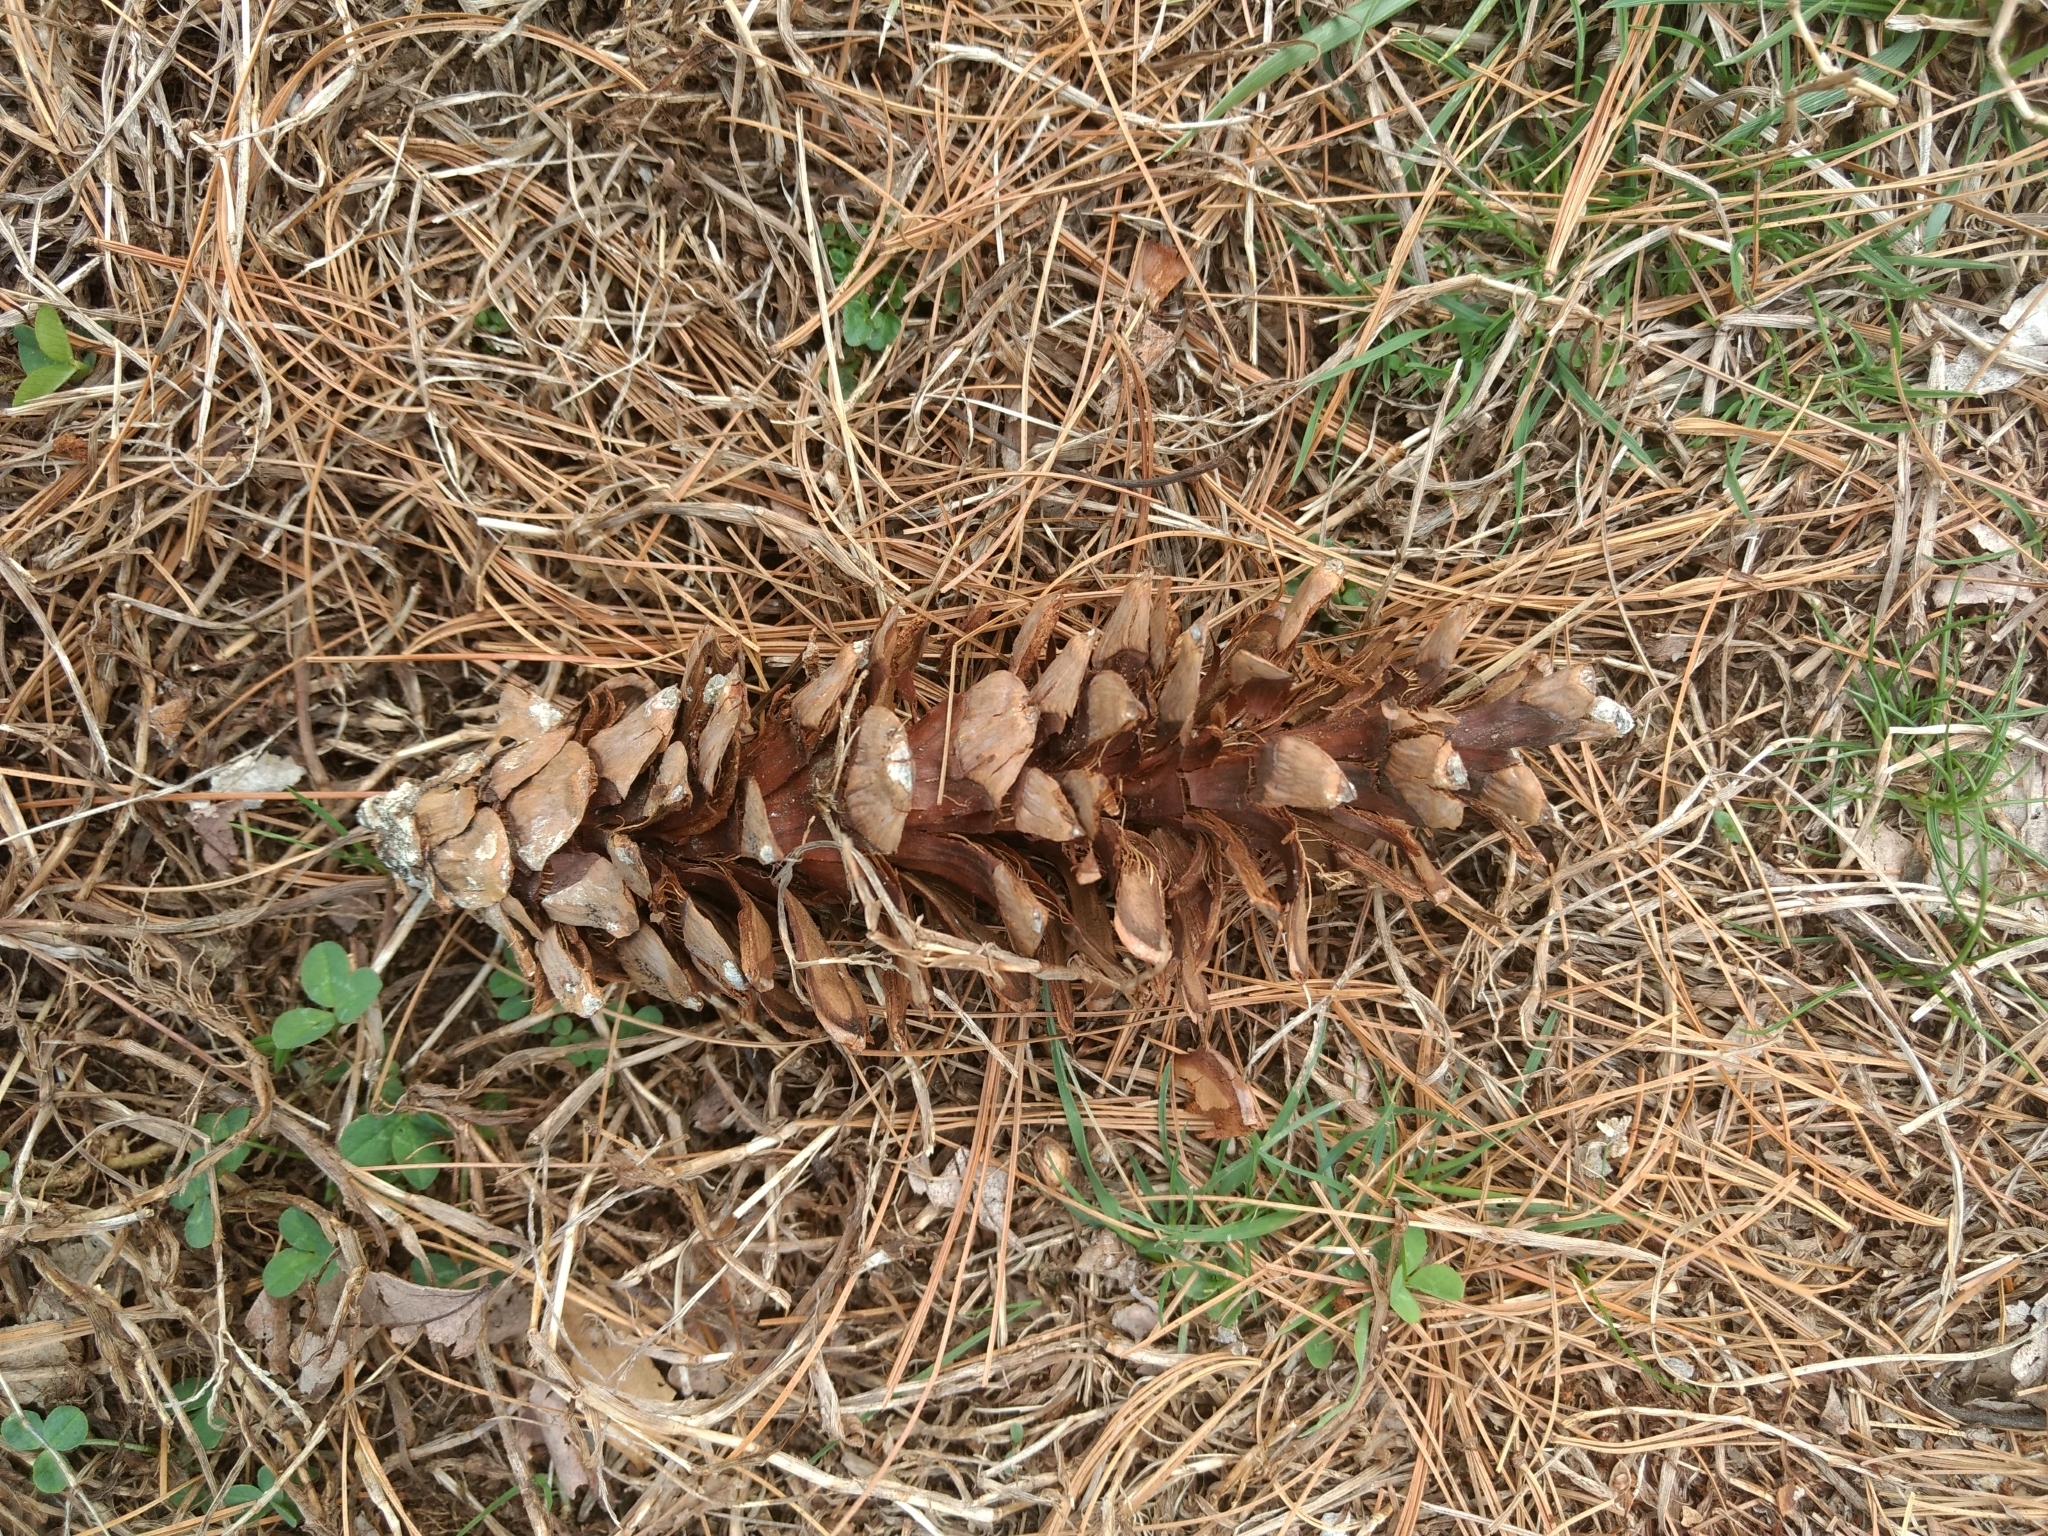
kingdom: Plantae
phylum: Tracheophyta
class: Pinopsida
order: Pinales
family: Pinaceae
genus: Pinus
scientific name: Pinus strobus
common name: Weymouth pine
